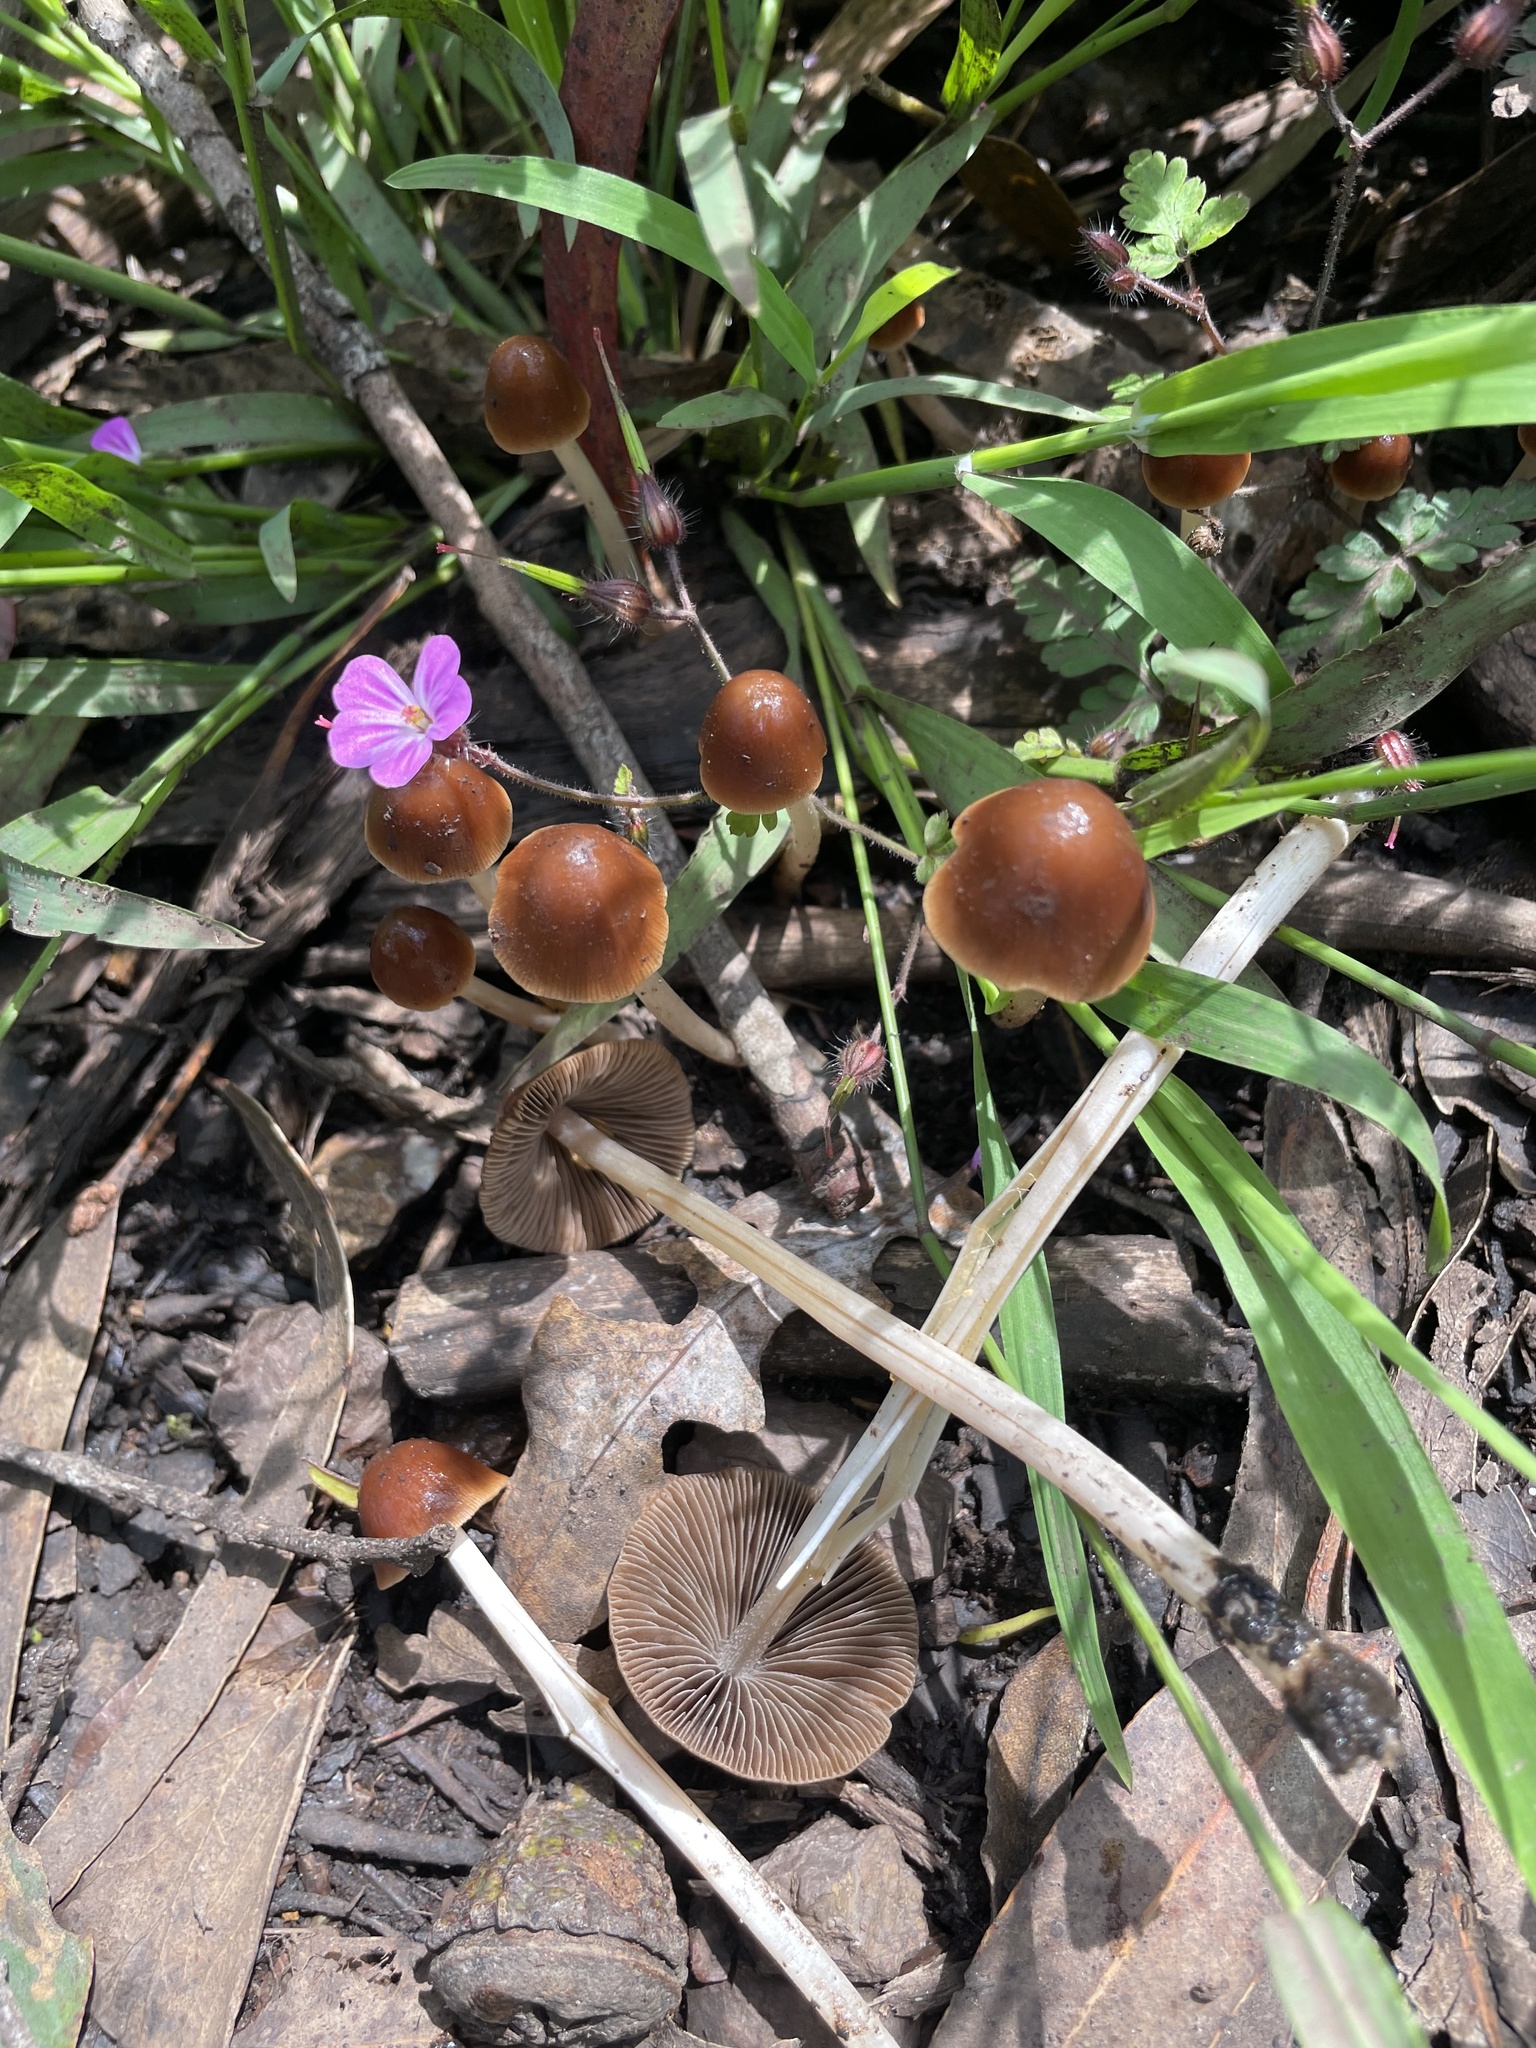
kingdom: Fungi
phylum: Basidiomycota
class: Agaricomycetes
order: Agaricales
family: Psathyrellaceae
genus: Parasola
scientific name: Parasola conopilea
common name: Conical brittlestem
